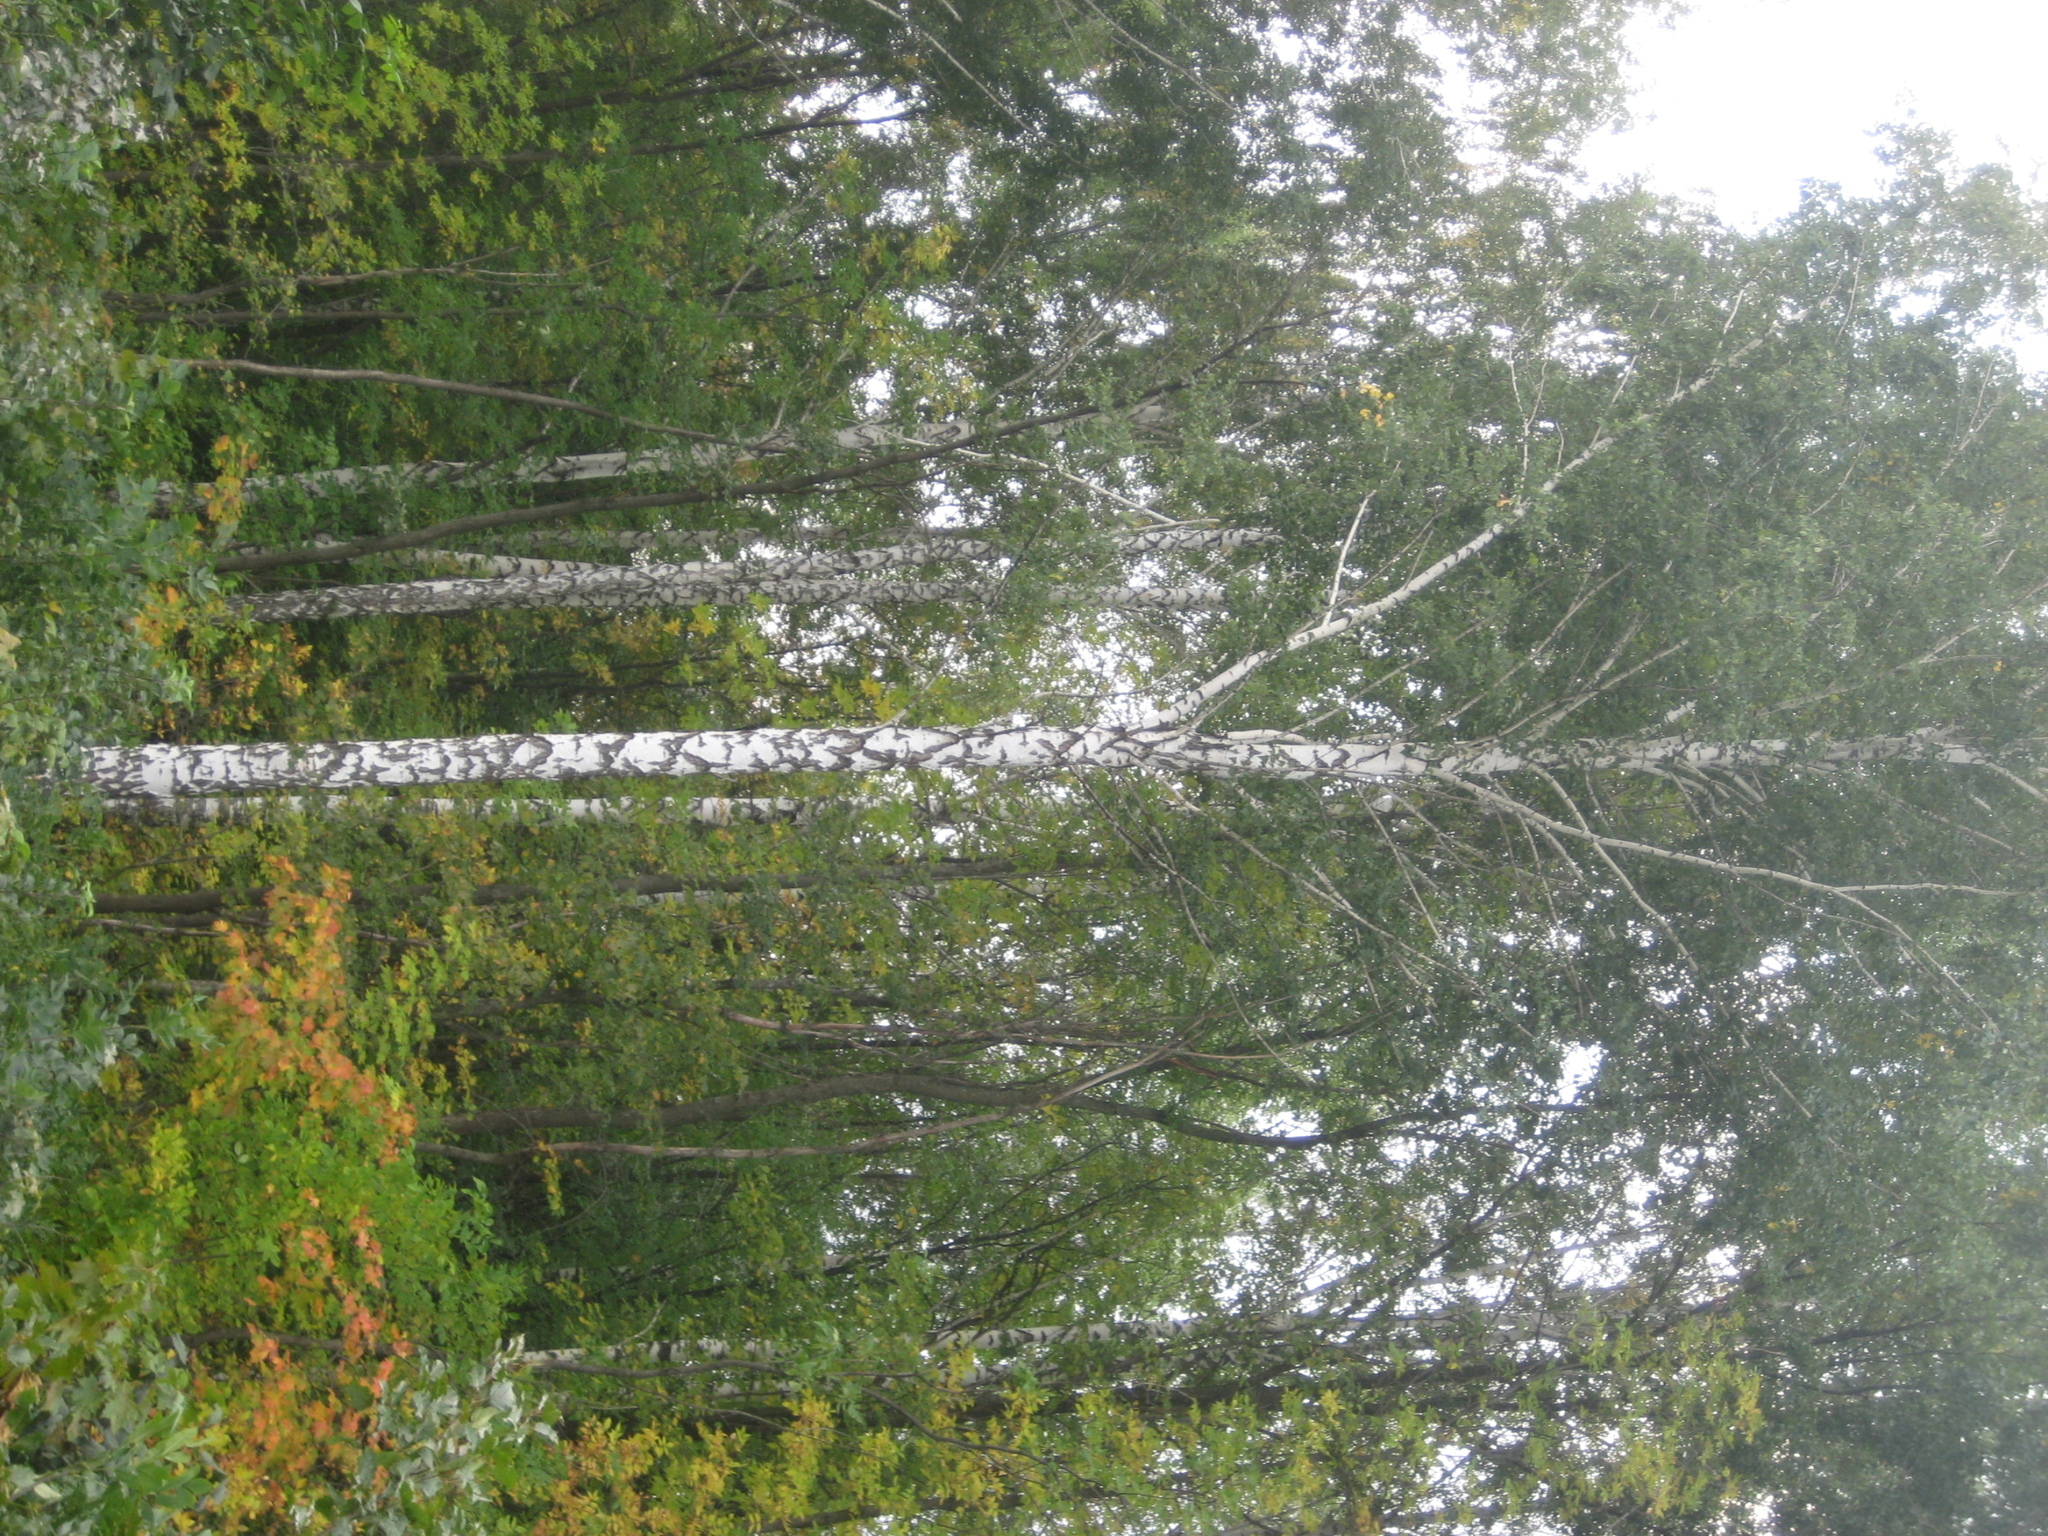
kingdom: Plantae
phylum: Tracheophyta
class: Magnoliopsida
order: Fagales
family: Betulaceae
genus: Betula
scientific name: Betula pendula
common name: Silver birch
